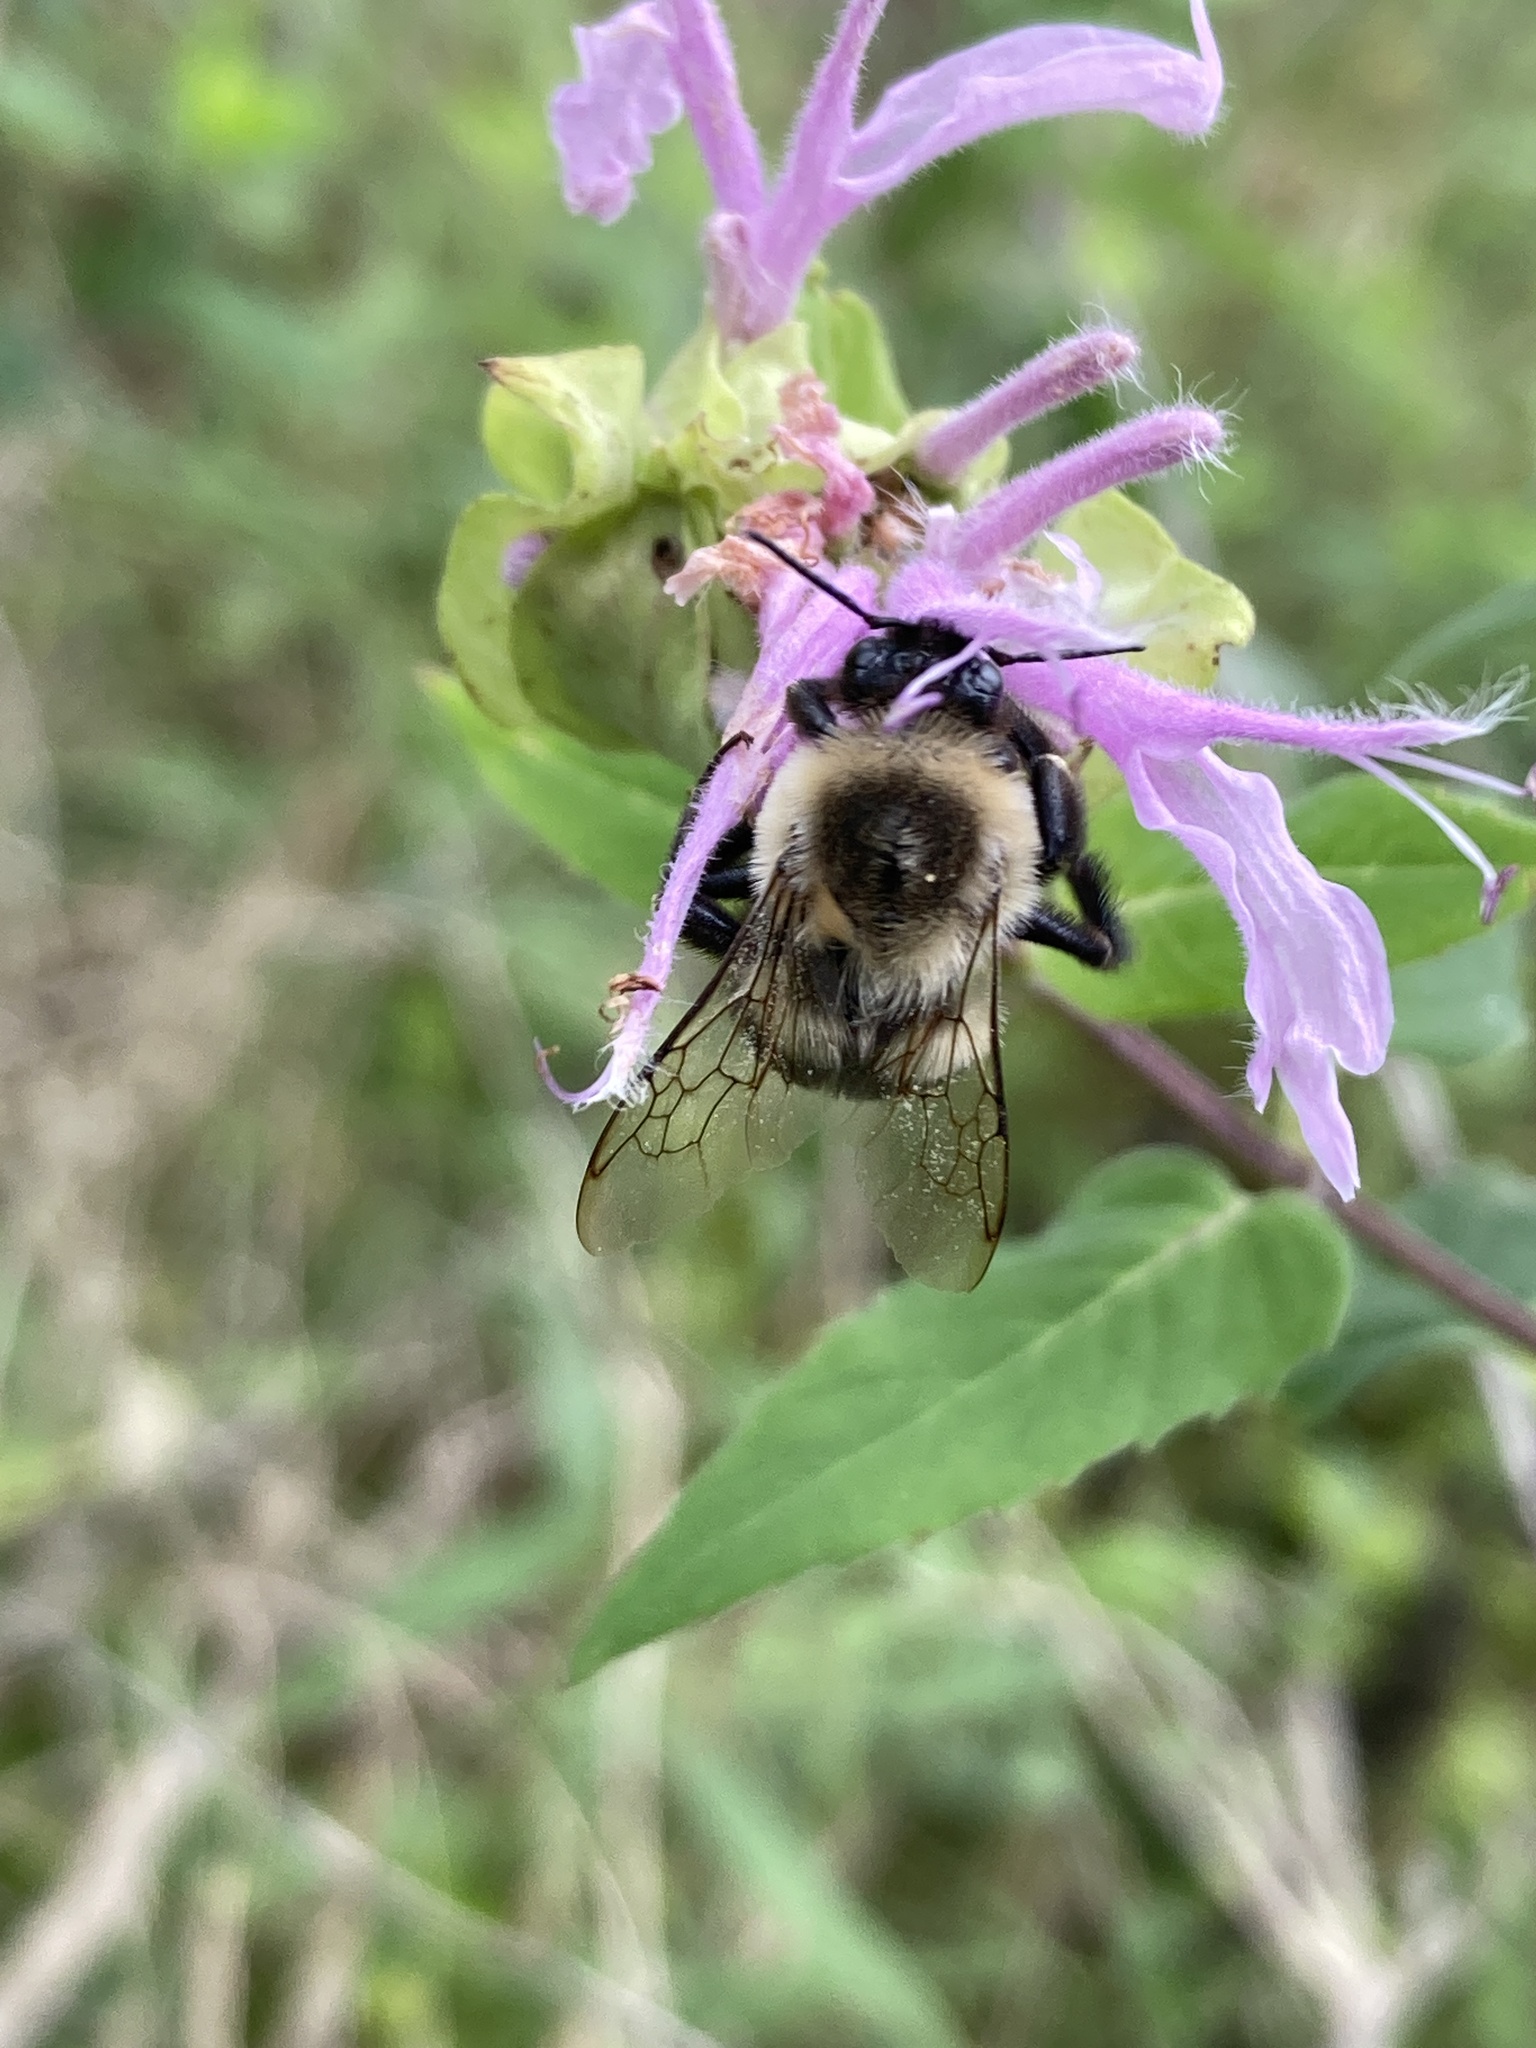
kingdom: Animalia
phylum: Arthropoda
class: Insecta
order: Hymenoptera
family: Apidae
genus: Bombus
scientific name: Bombus impatiens
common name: Common eastern bumble bee
